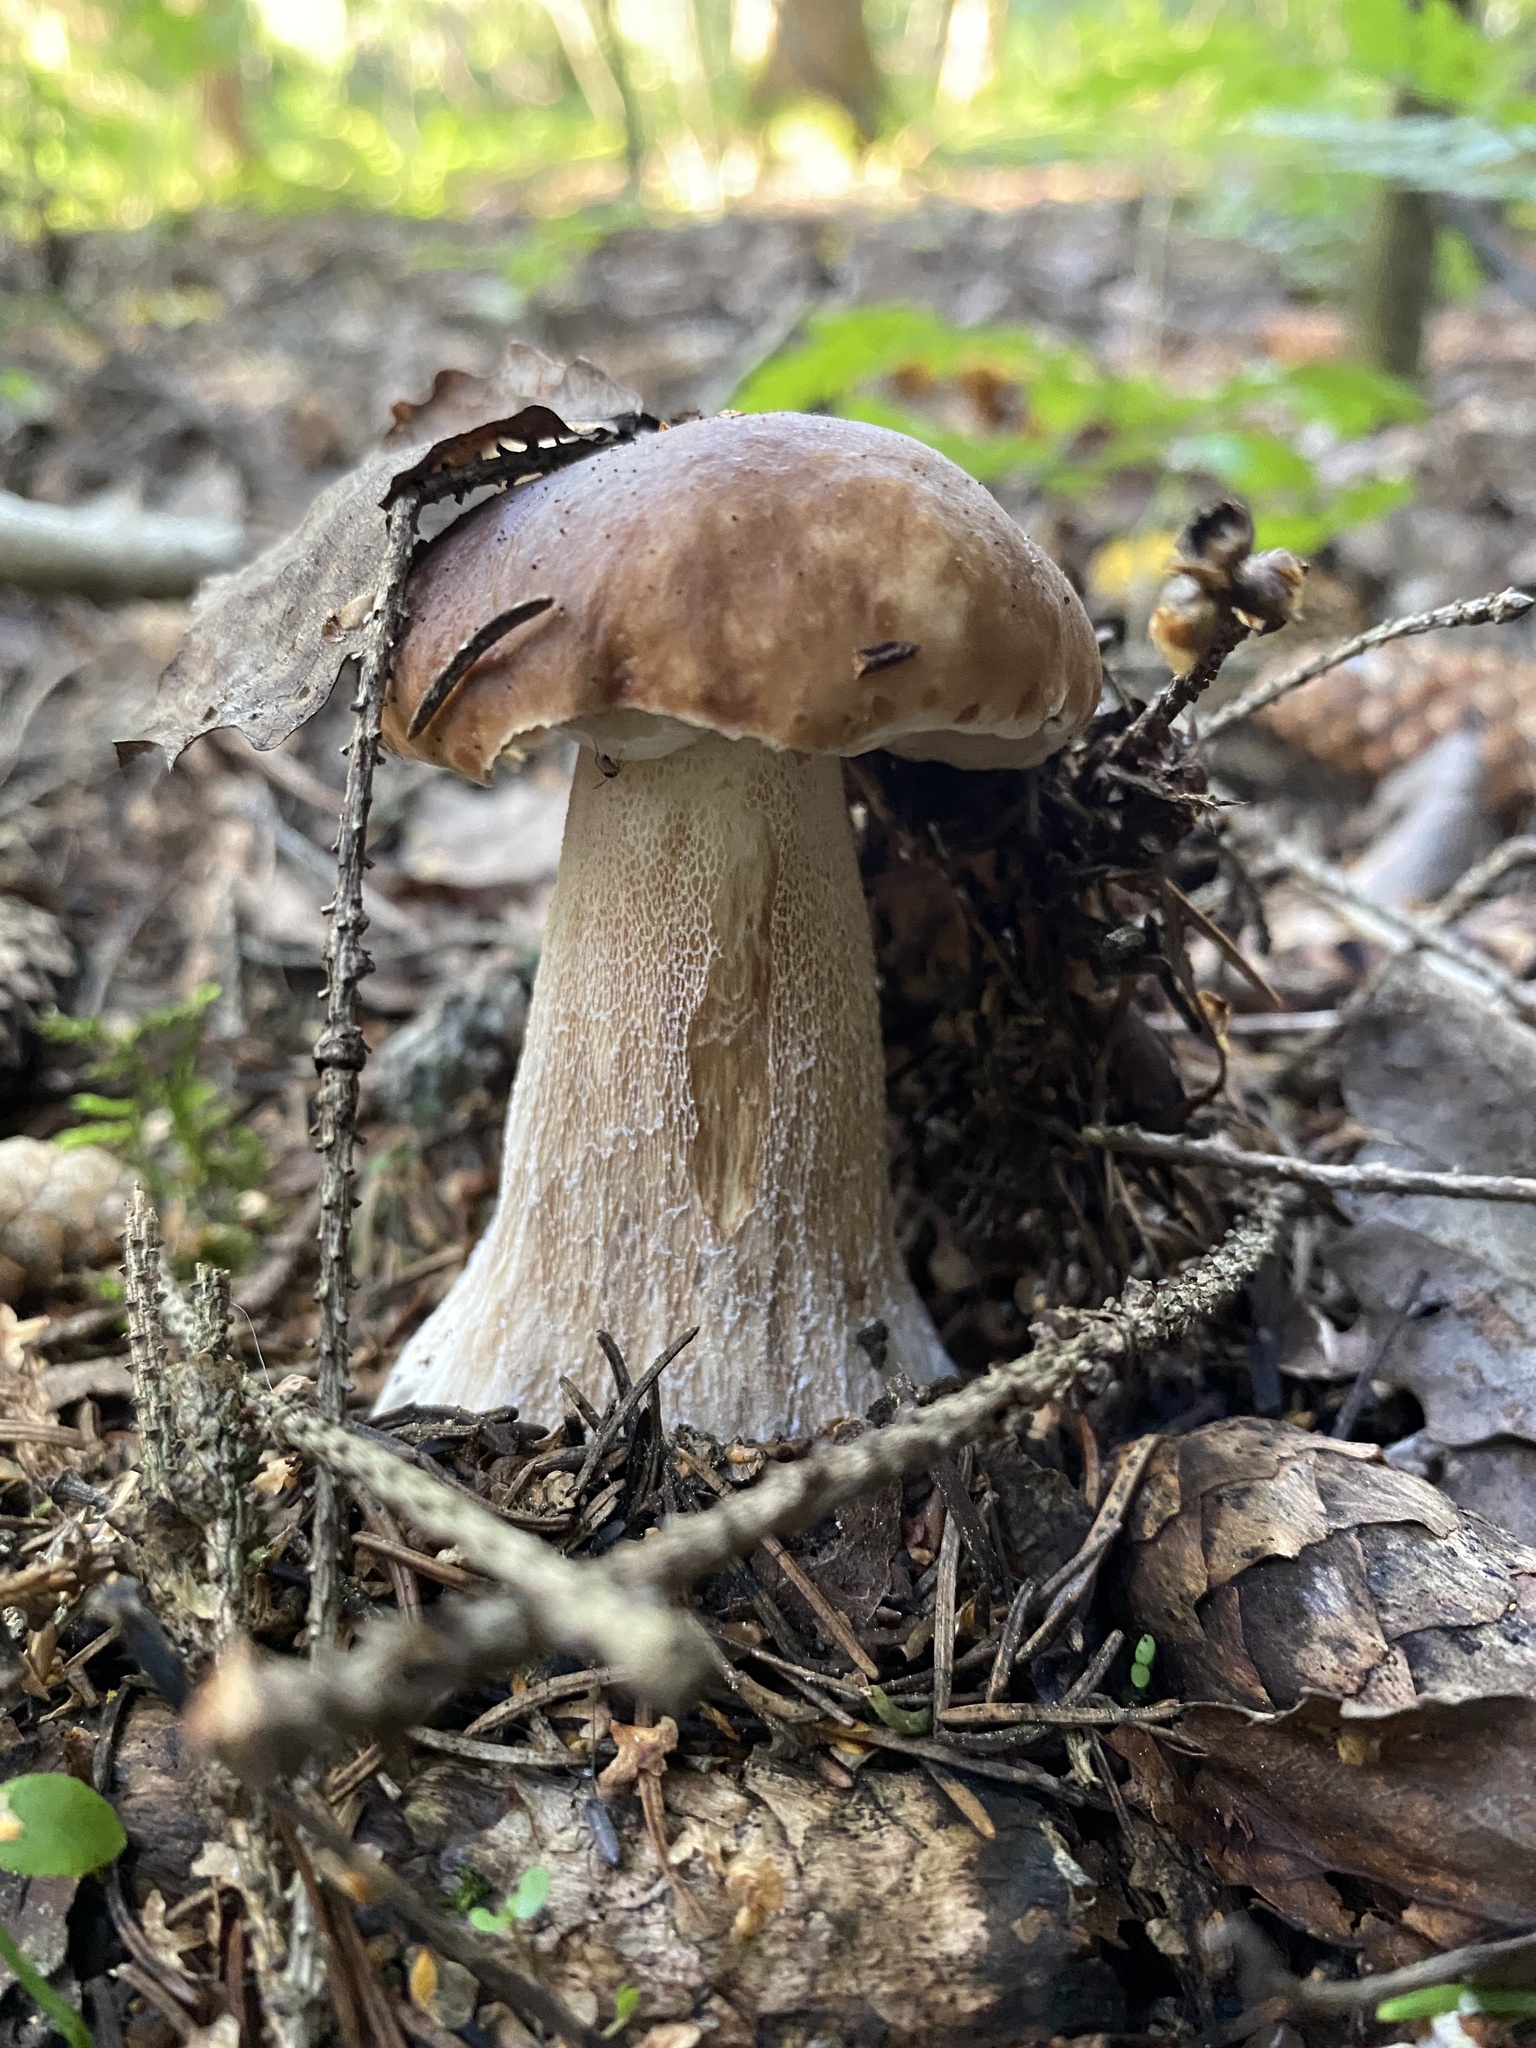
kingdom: Fungi
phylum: Basidiomycota
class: Agaricomycetes
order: Boletales
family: Boletaceae
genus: Boletus
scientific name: Boletus edulis
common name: Cep
